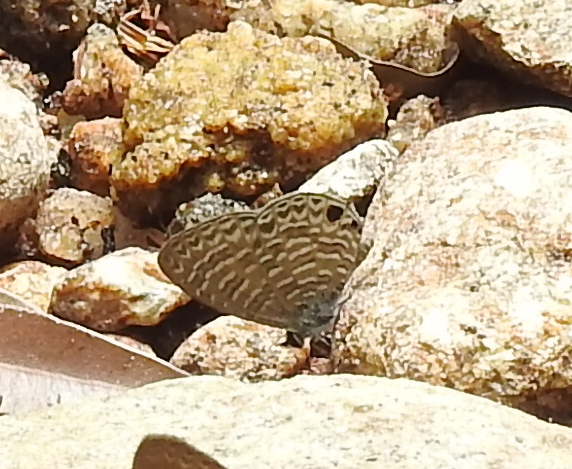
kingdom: Animalia
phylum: Arthropoda
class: Insecta
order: Lepidoptera
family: Lycaenidae
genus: Nacaduba
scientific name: Nacaduba sinhala
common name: Pale ceylon line blue
